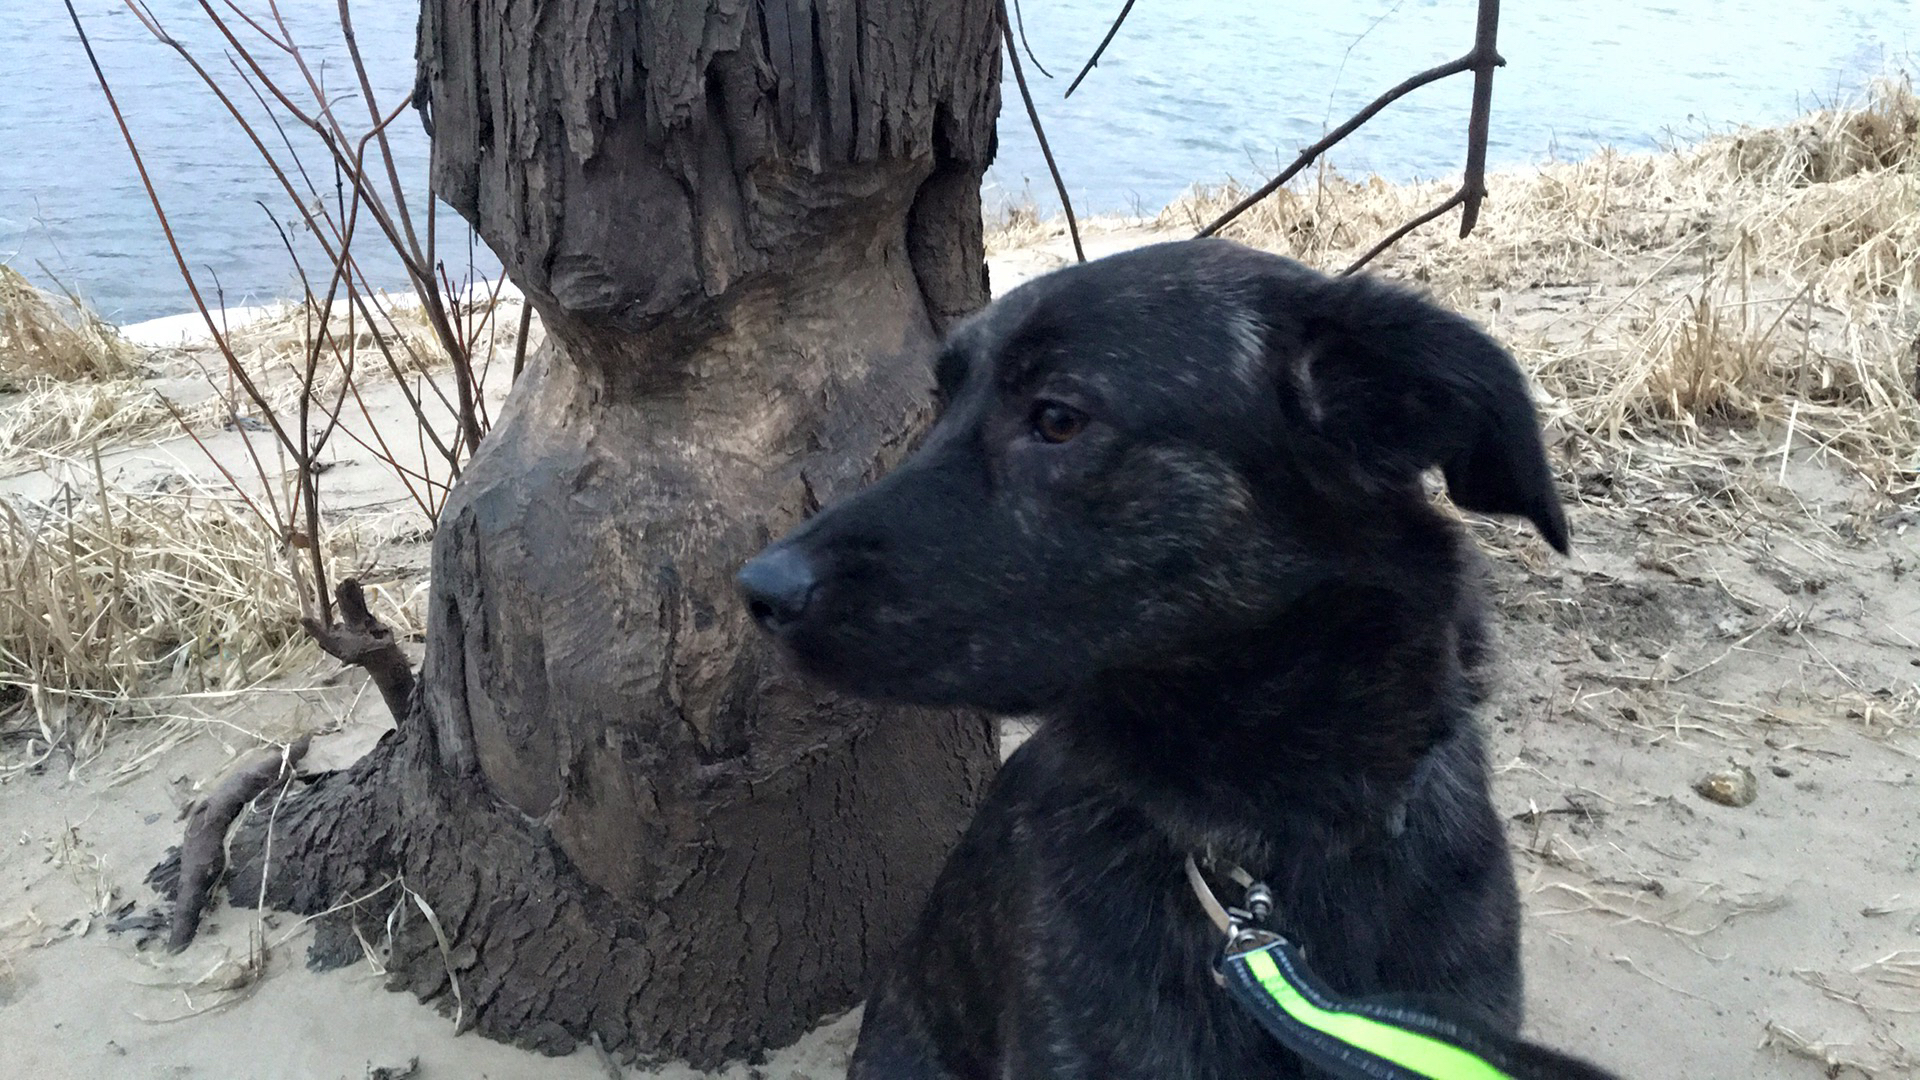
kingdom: Animalia
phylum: Chordata
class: Mammalia
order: Rodentia
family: Castoridae
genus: Castor
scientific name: Castor canadensis
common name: American beaver
